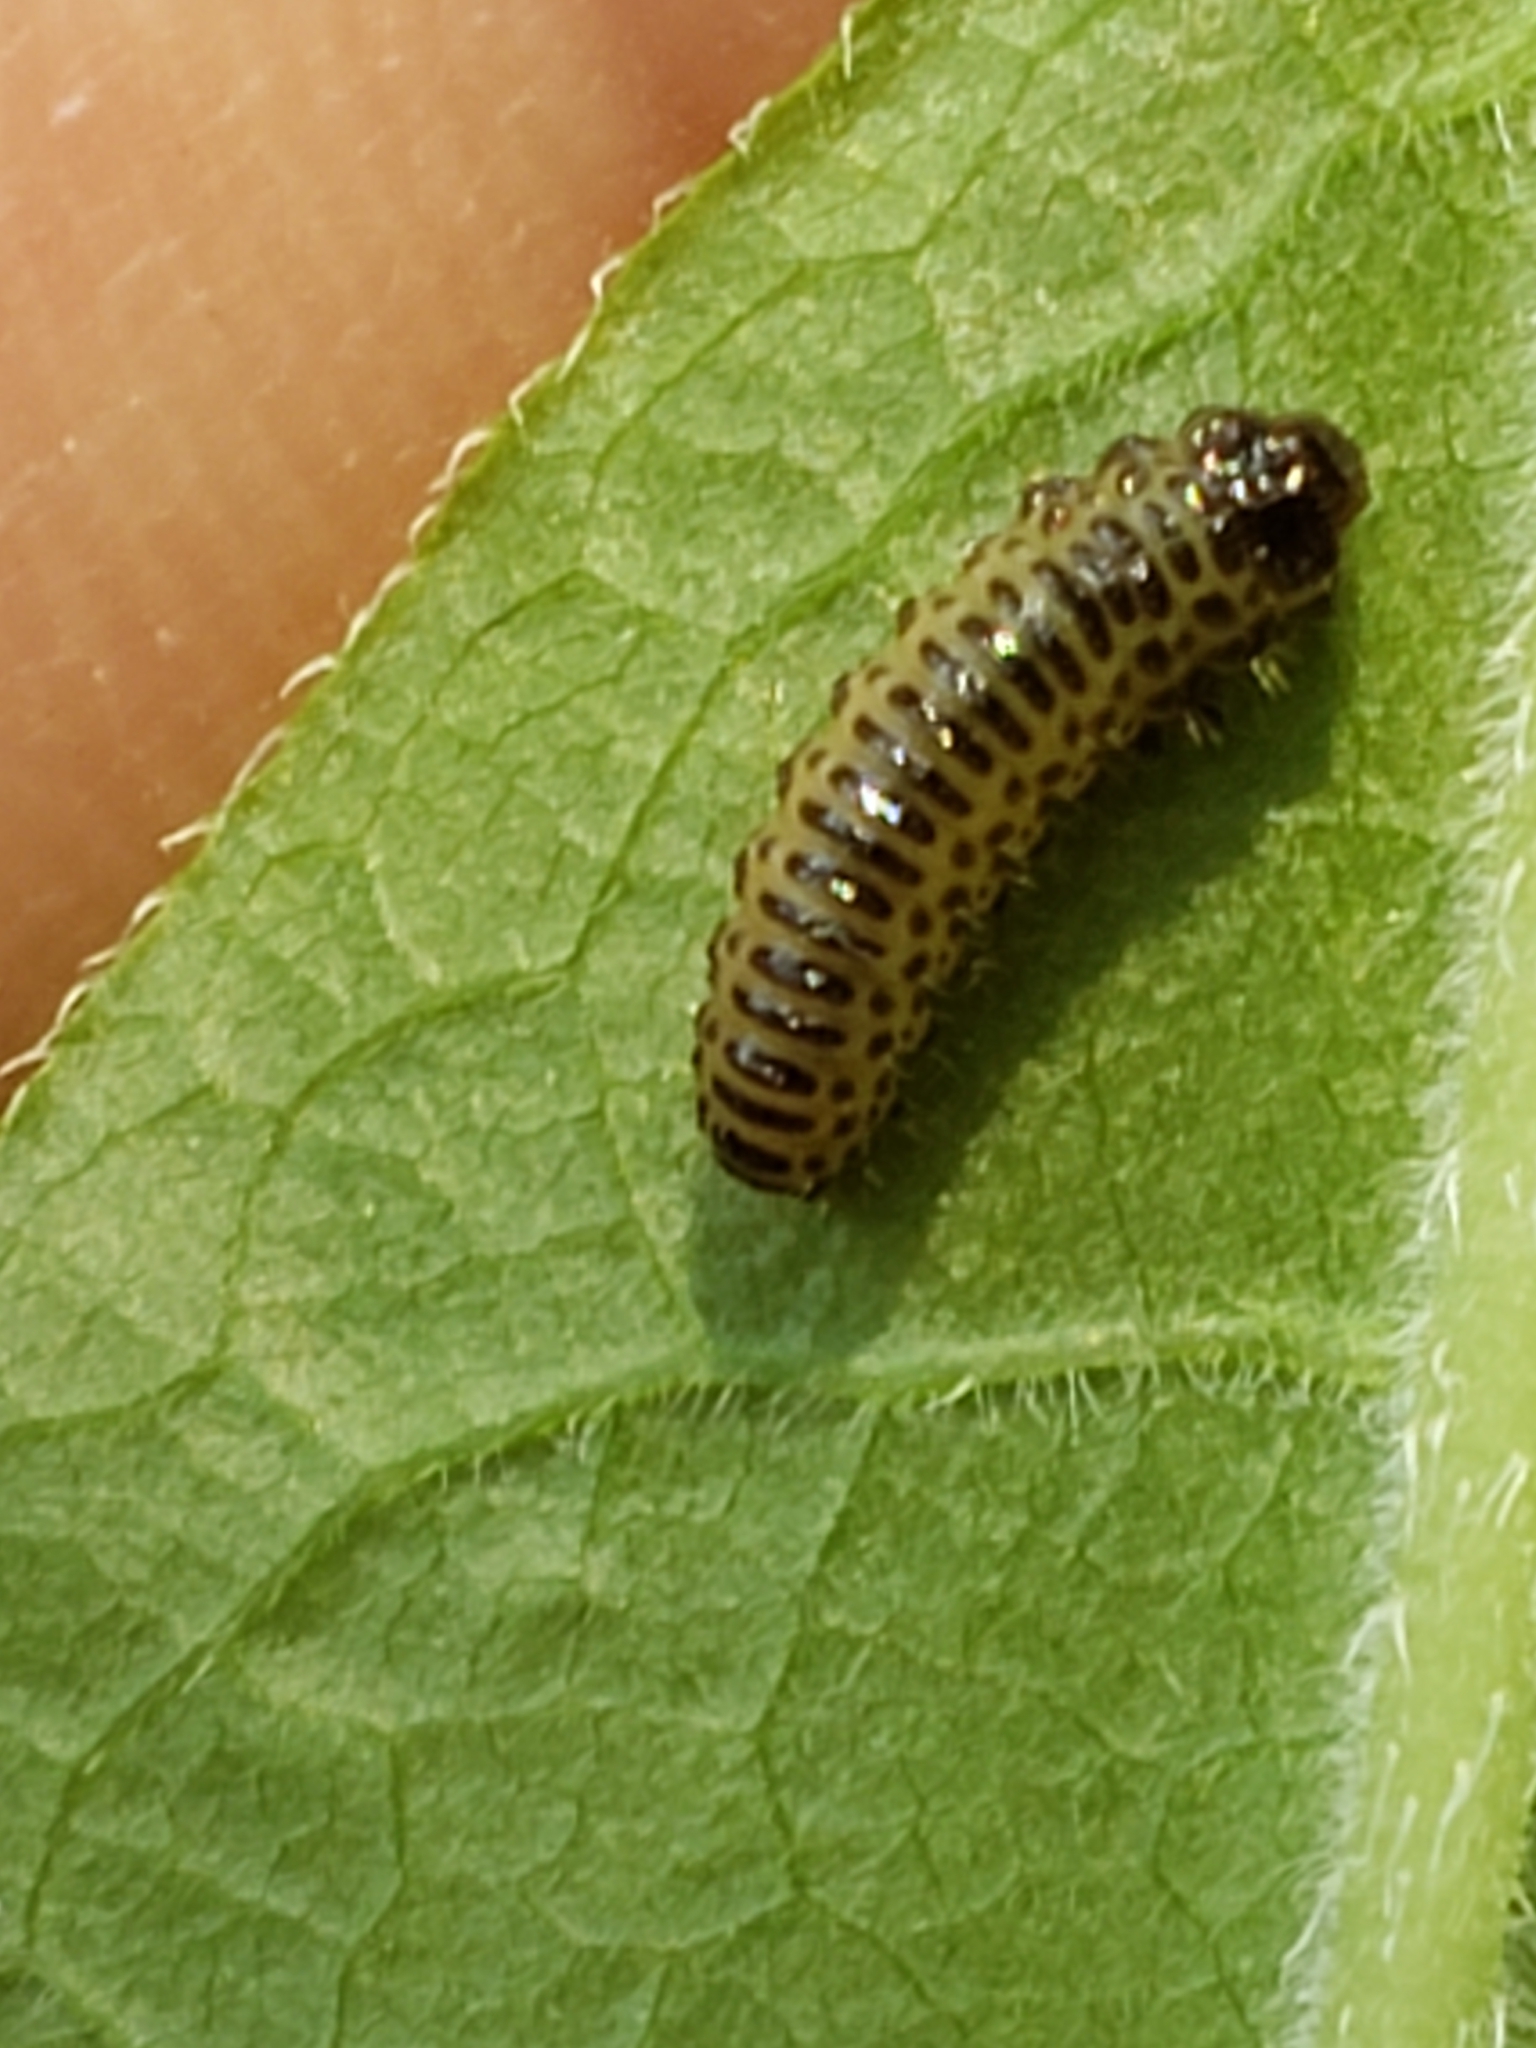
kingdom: Animalia
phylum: Arthropoda
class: Insecta
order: Coleoptera
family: Chrysomelidae
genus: Pyrrhalta
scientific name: Pyrrhalta viburni
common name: Guelder-rose leaf beetle
